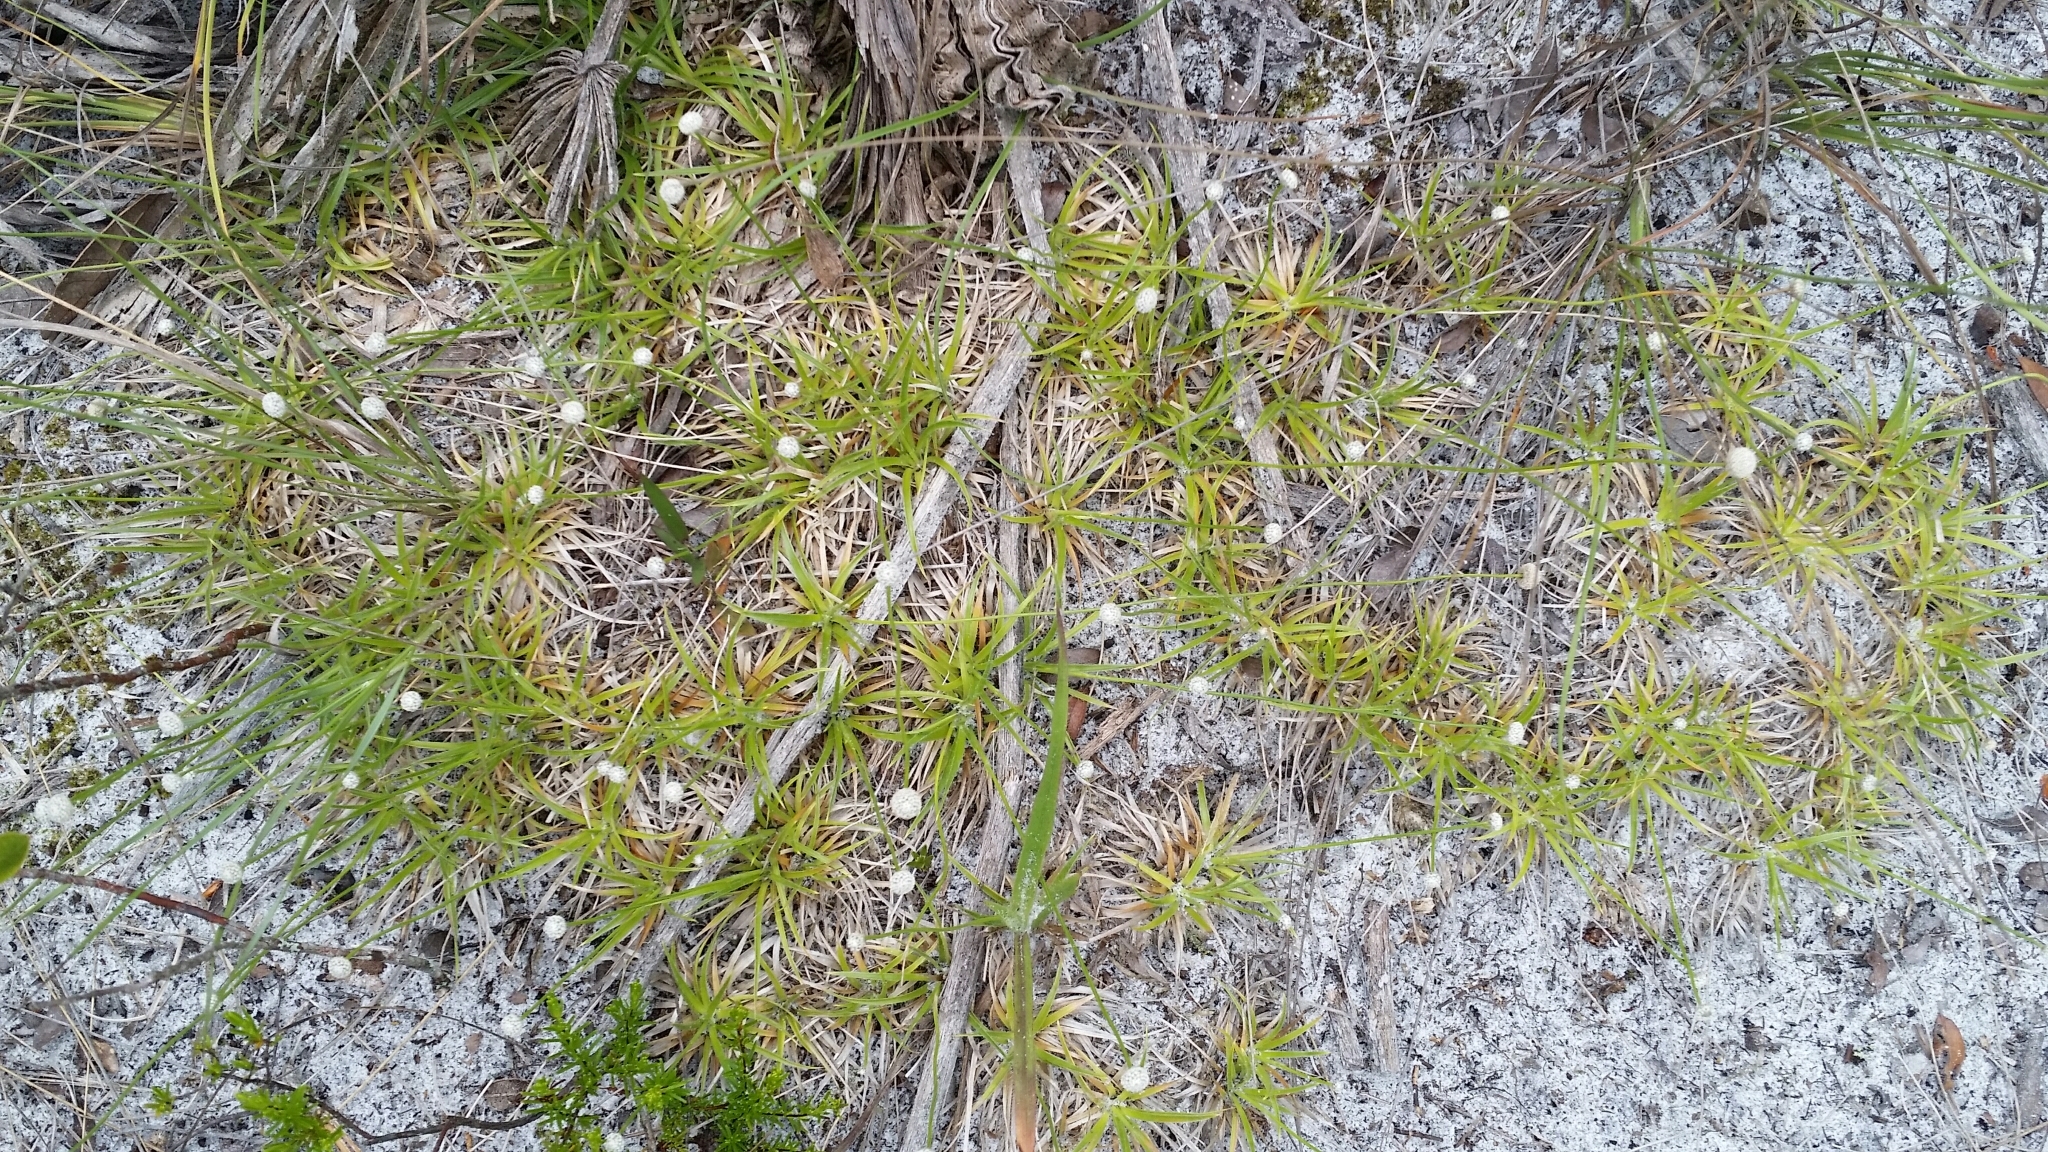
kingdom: Plantae
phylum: Tracheophyta
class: Liliopsida
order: Poales
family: Eriocaulaceae
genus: Paepalanthus
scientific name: Paepalanthus beyrichianus
